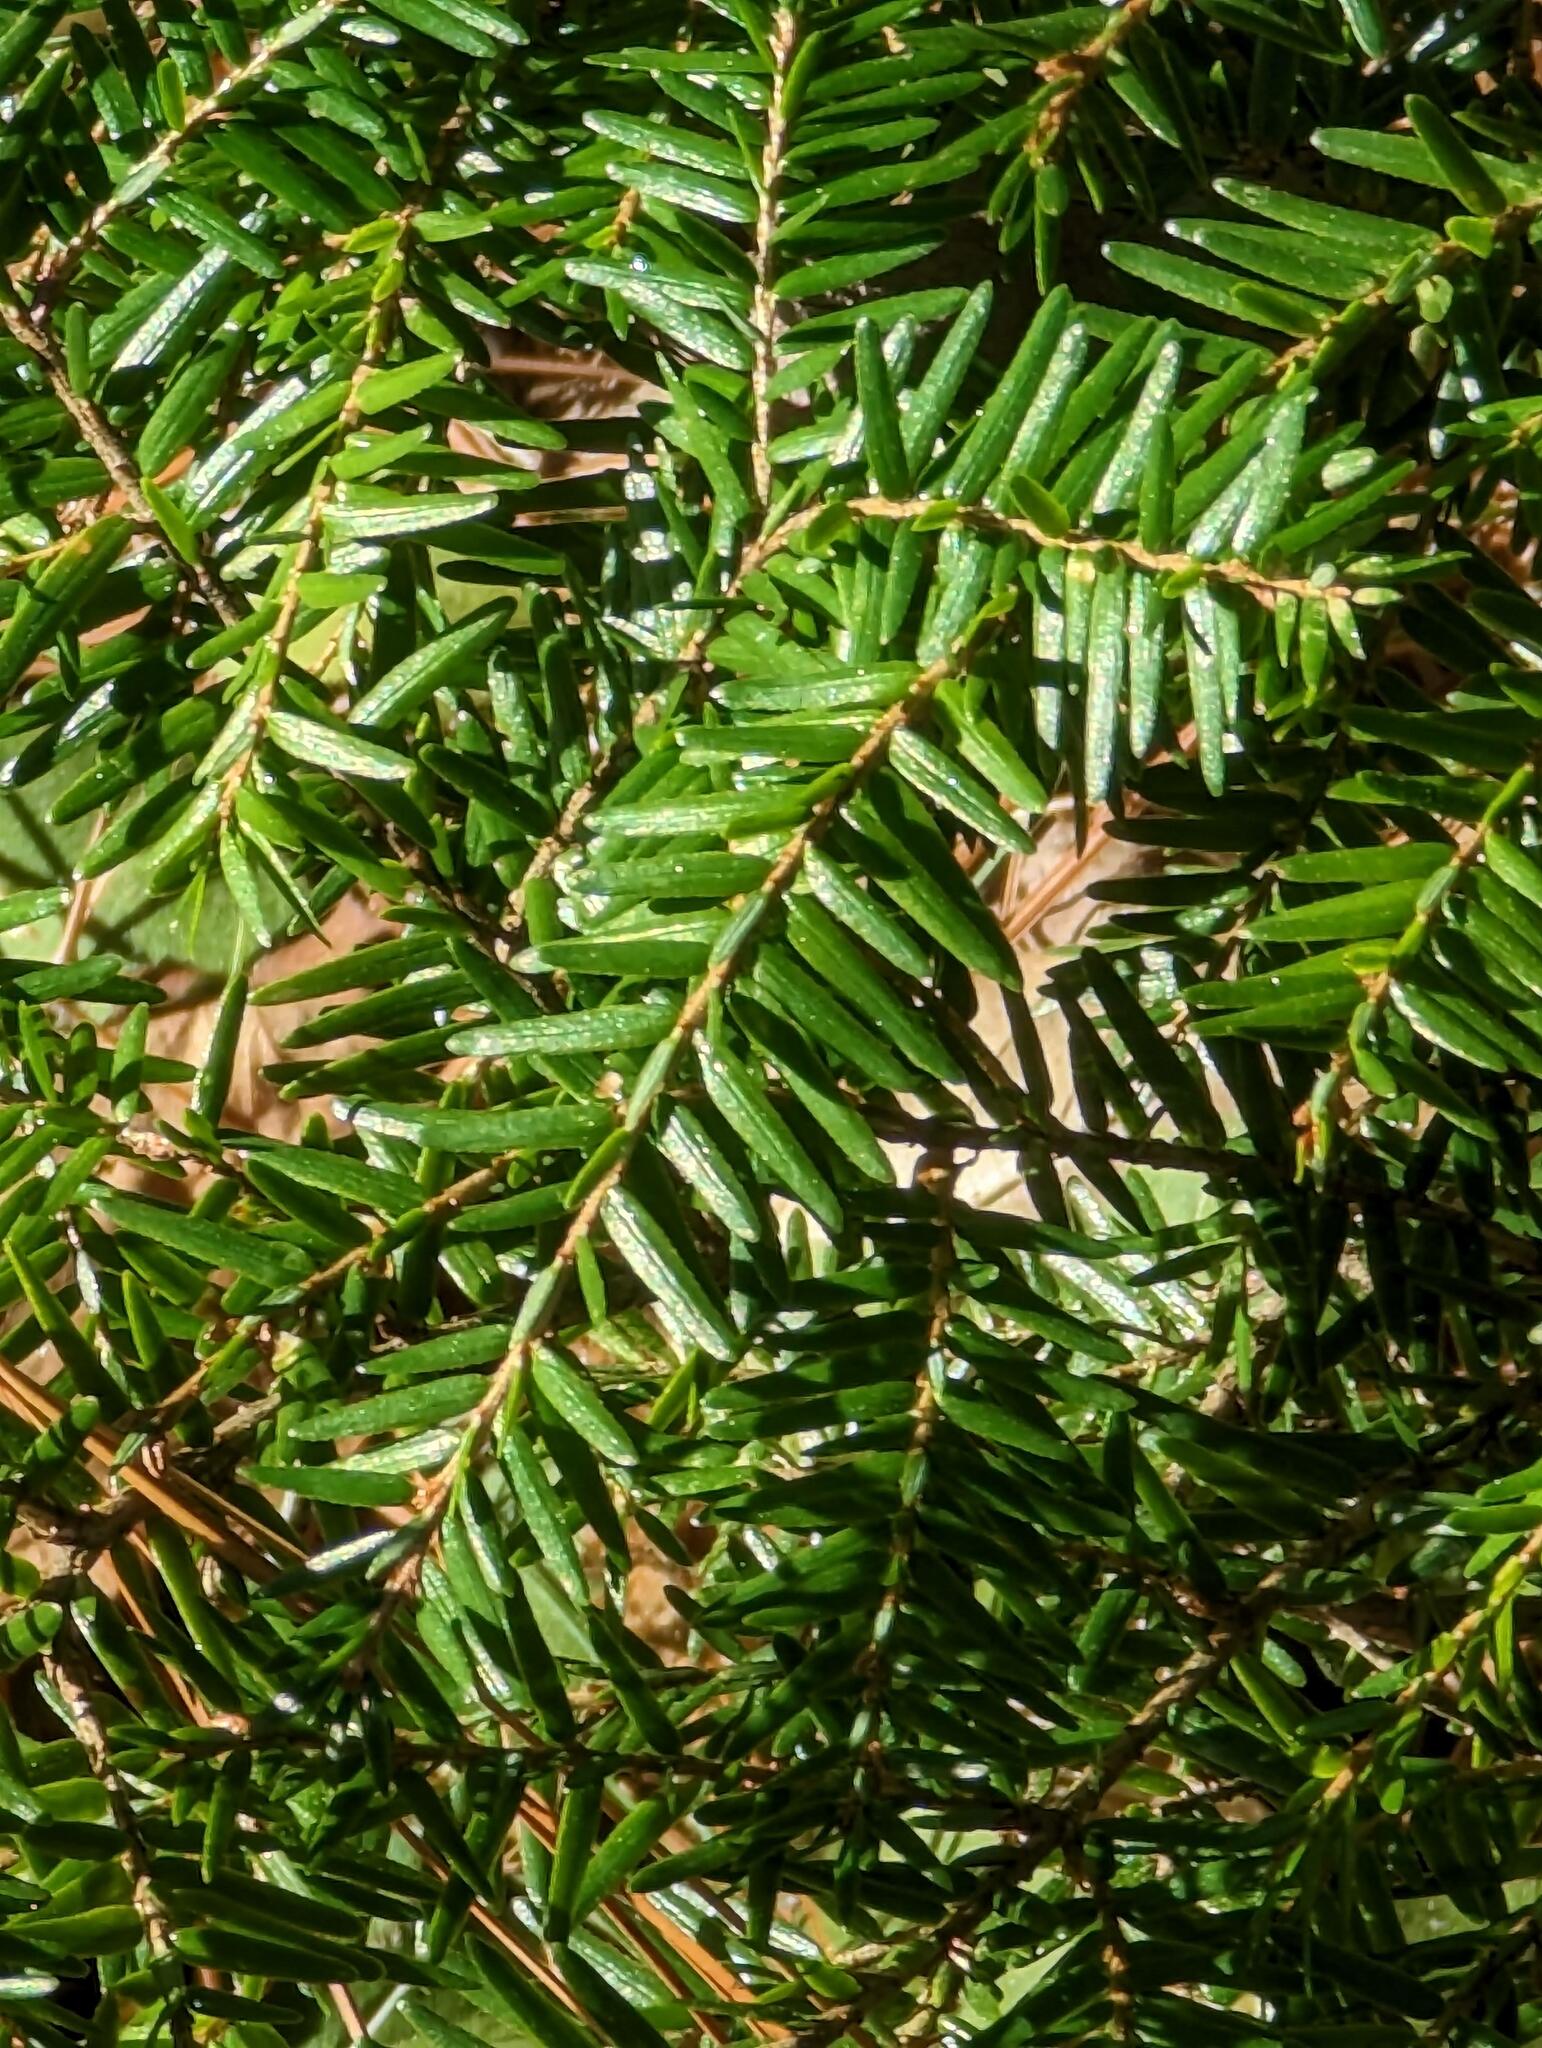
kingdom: Plantae
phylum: Tracheophyta
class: Pinopsida
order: Pinales
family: Pinaceae
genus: Tsuga
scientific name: Tsuga canadensis
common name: Eastern hemlock
